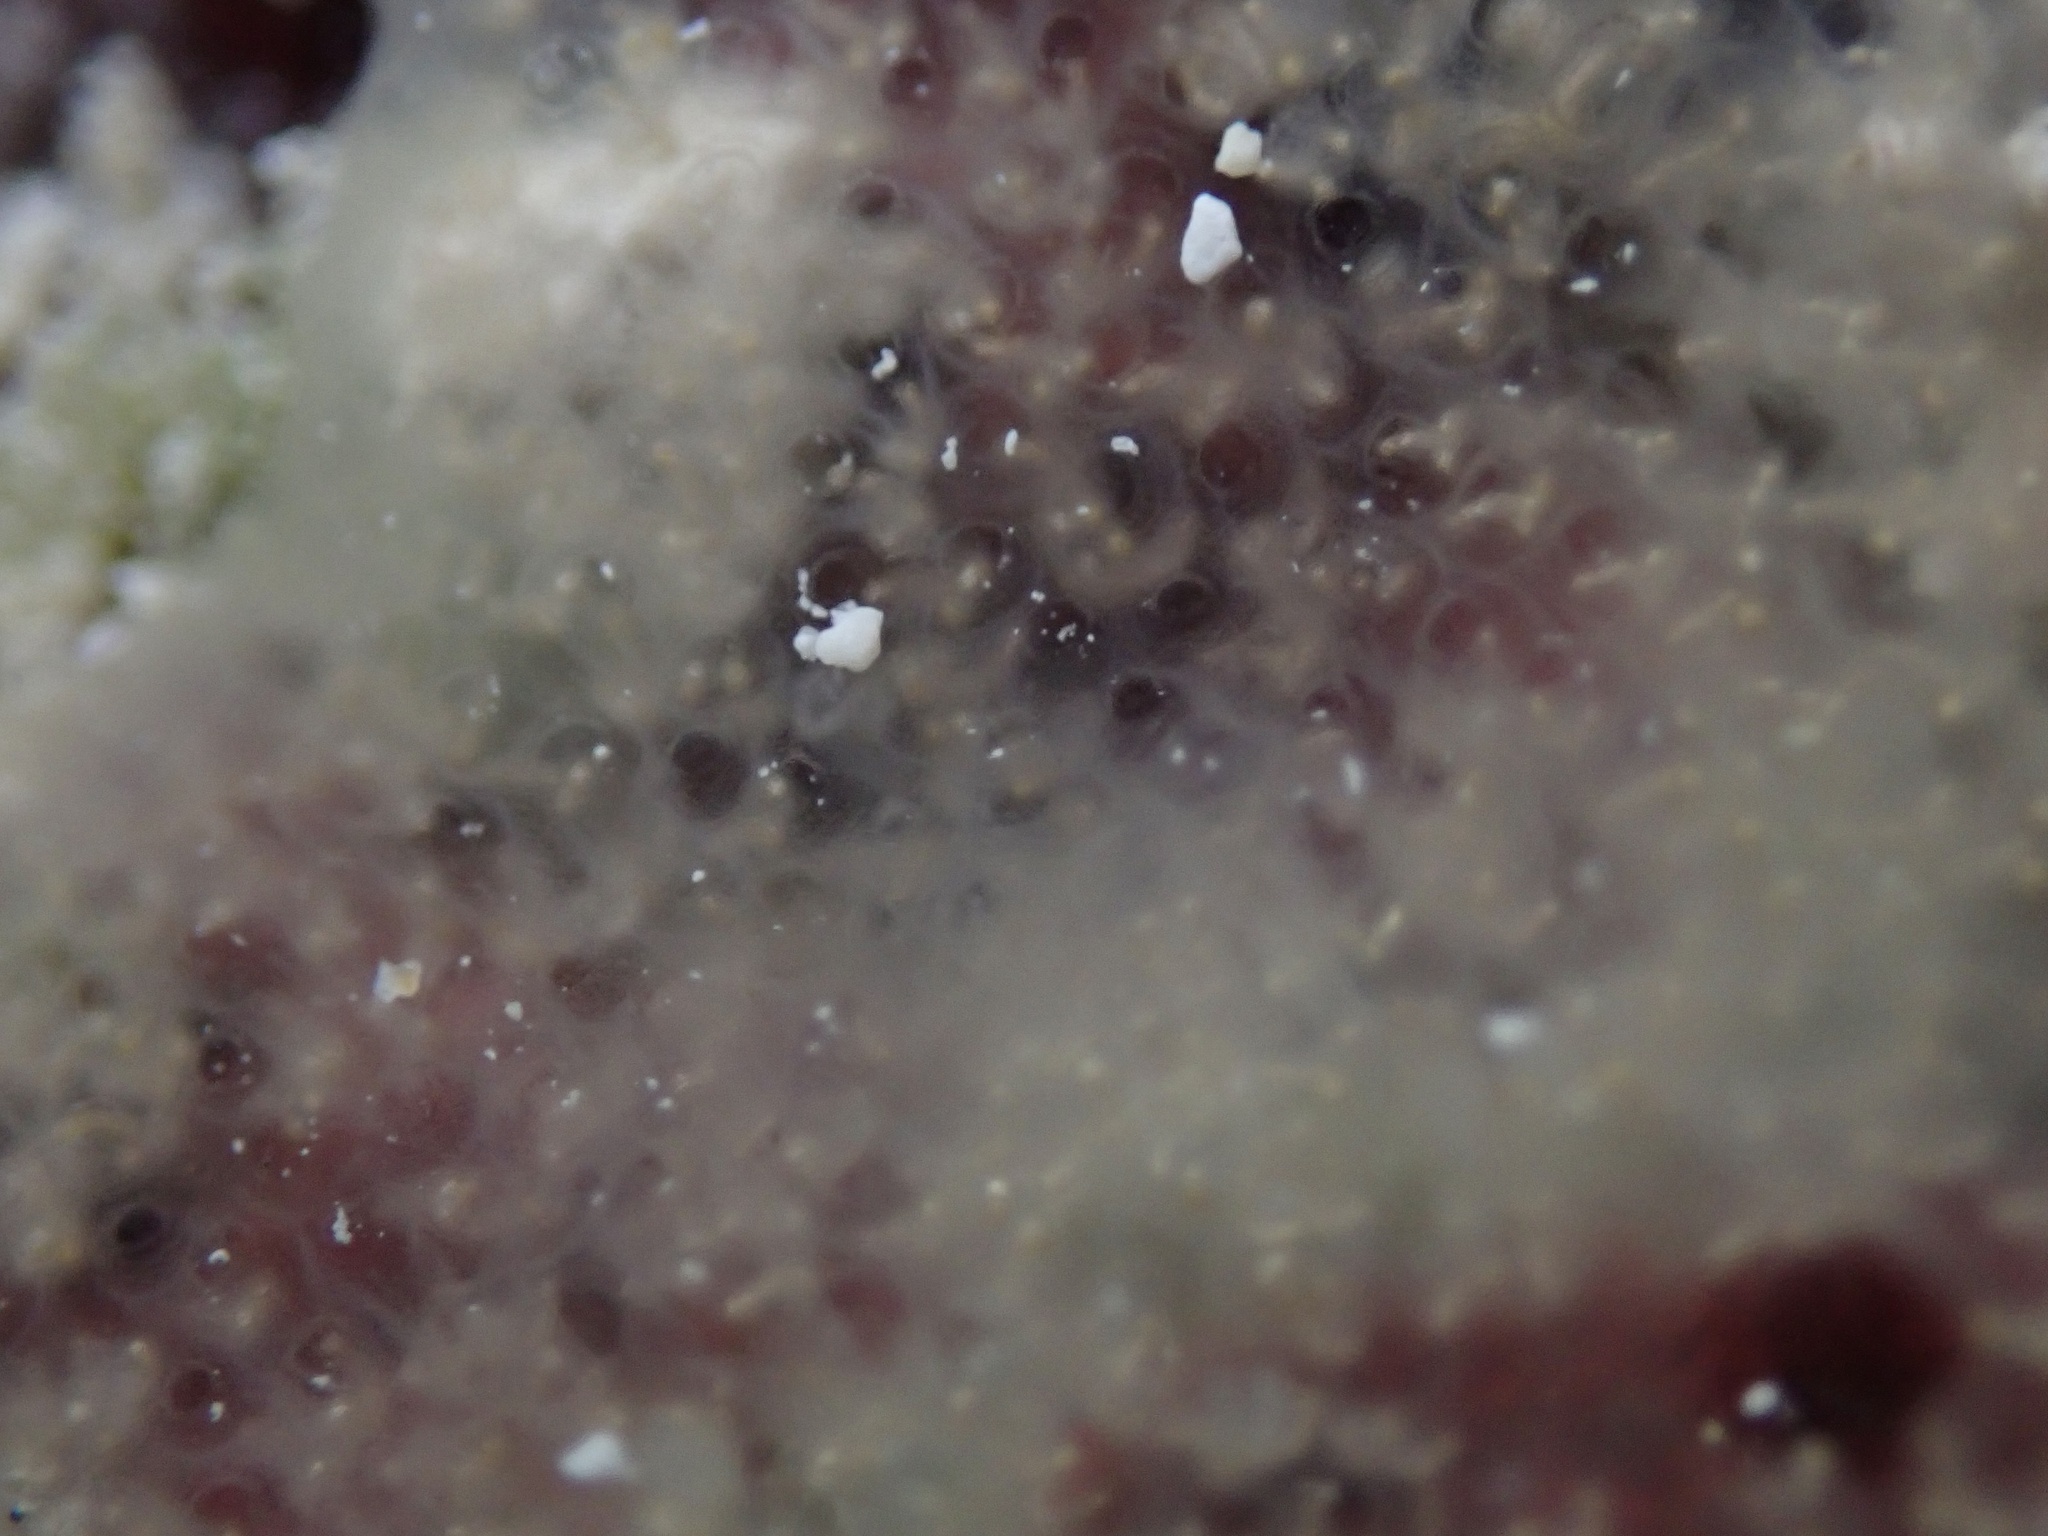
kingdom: Animalia
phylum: Chordata
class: Ascidiacea
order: Aplousobranchia
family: Didemnidae
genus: Diplosoma
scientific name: Diplosoma listerianum
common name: Compound sea squirt
